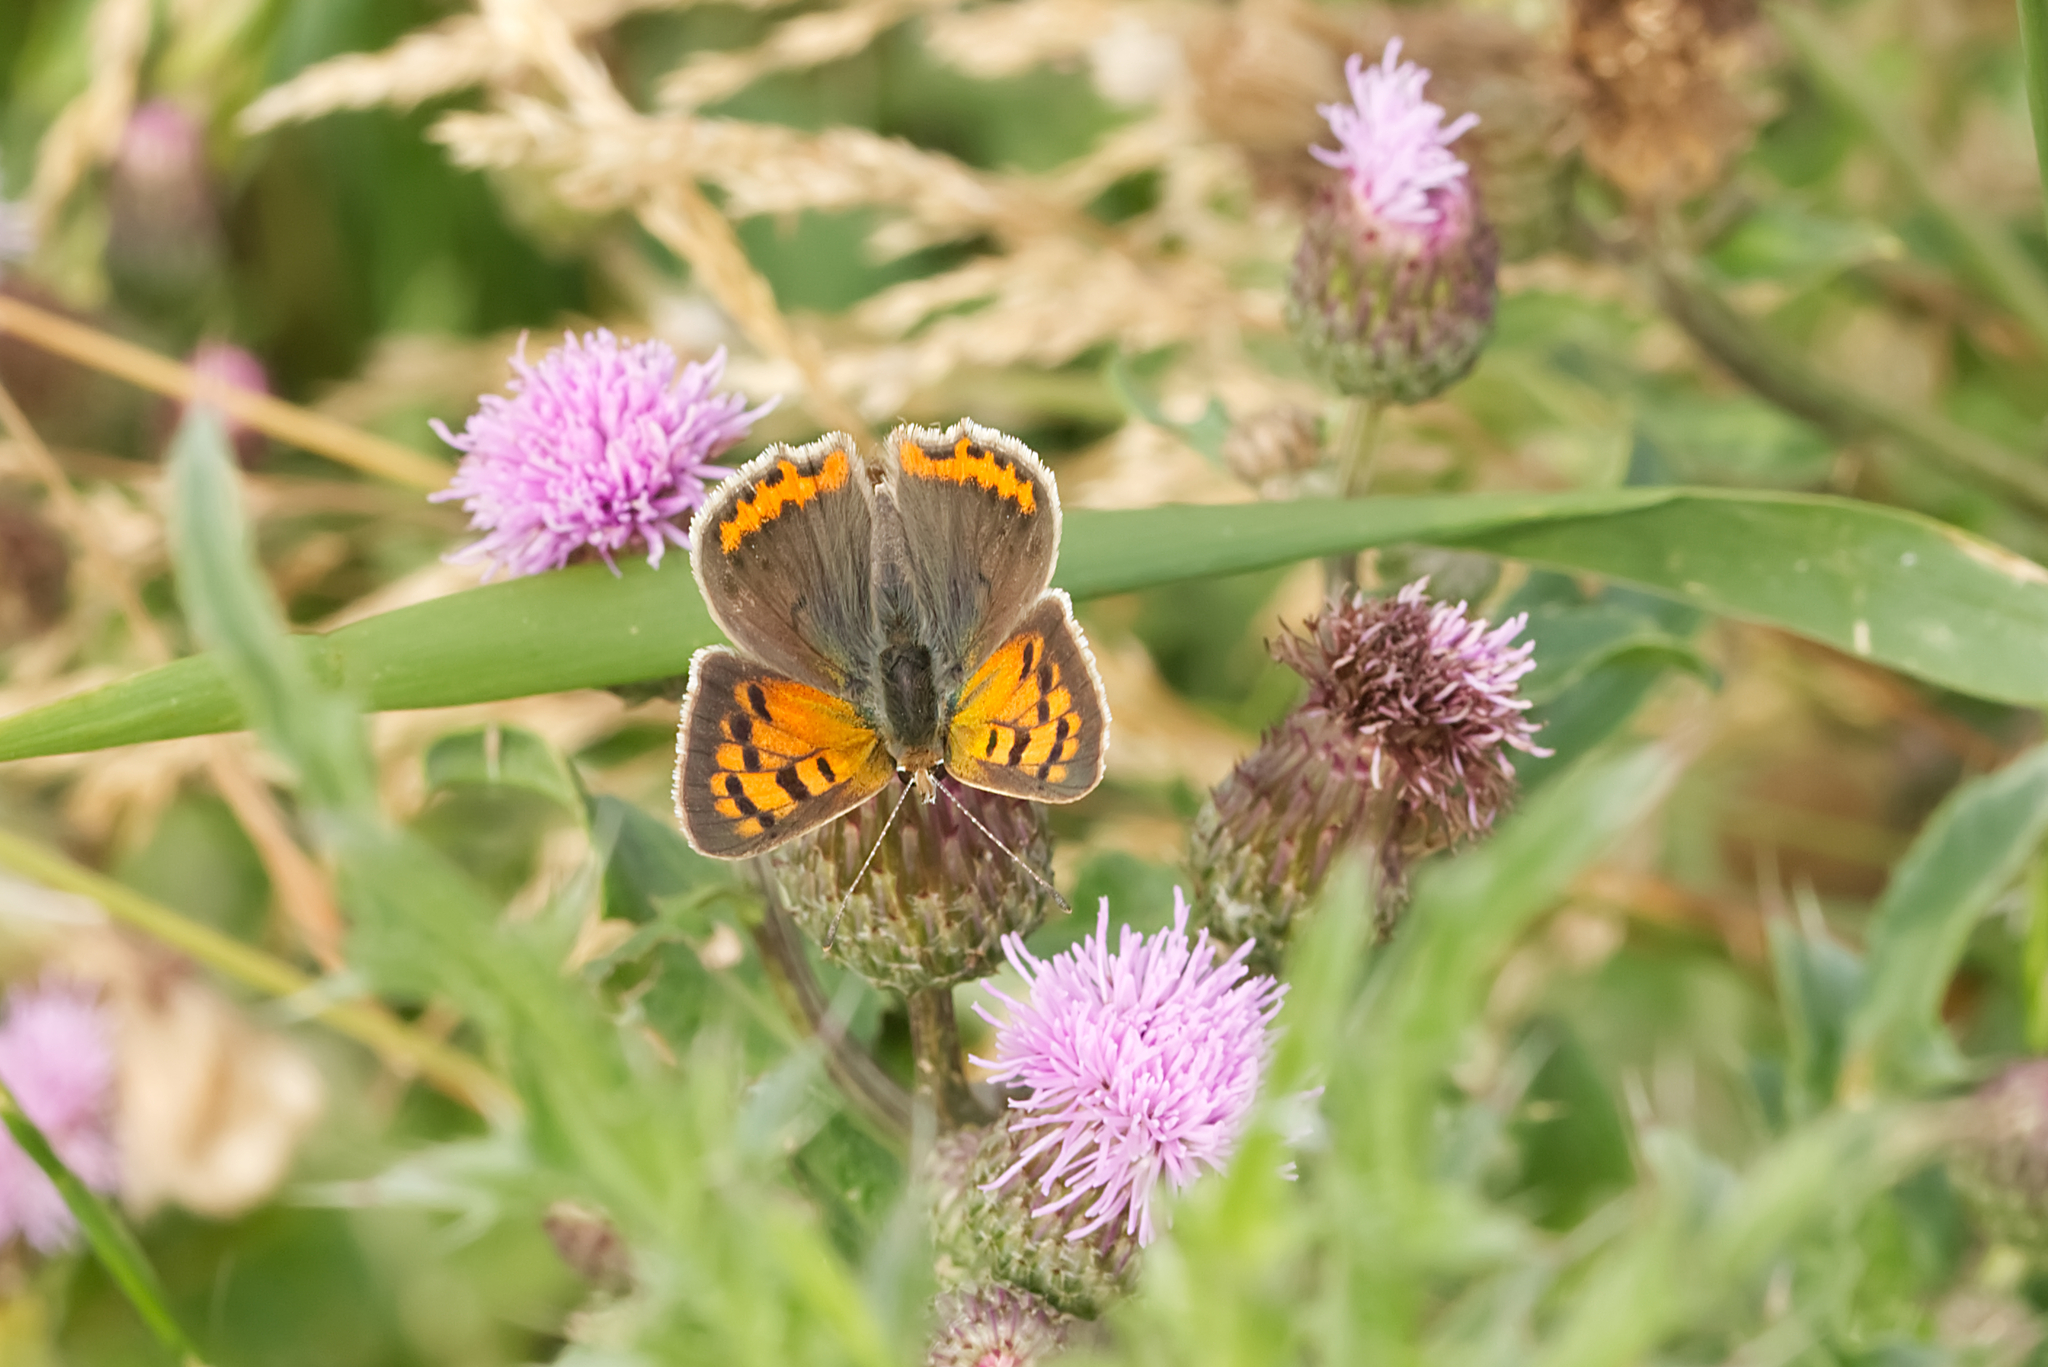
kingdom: Animalia
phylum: Arthropoda
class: Insecta
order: Lepidoptera
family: Lycaenidae
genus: Lycaena
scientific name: Lycaena phlaeas
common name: Small copper
